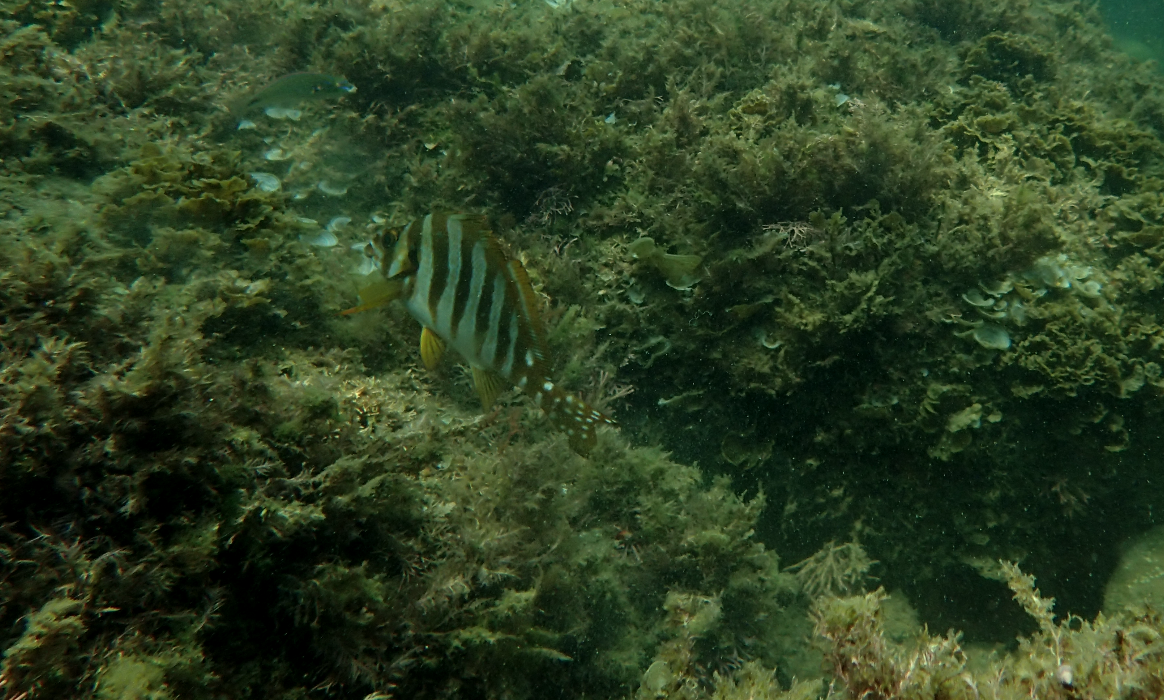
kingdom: Animalia
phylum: Chordata
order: Perciformes
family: Cheilodactylidae
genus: Cheilodactylus
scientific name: Cheilodactylus zonatus
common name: Spottedtail morwong
